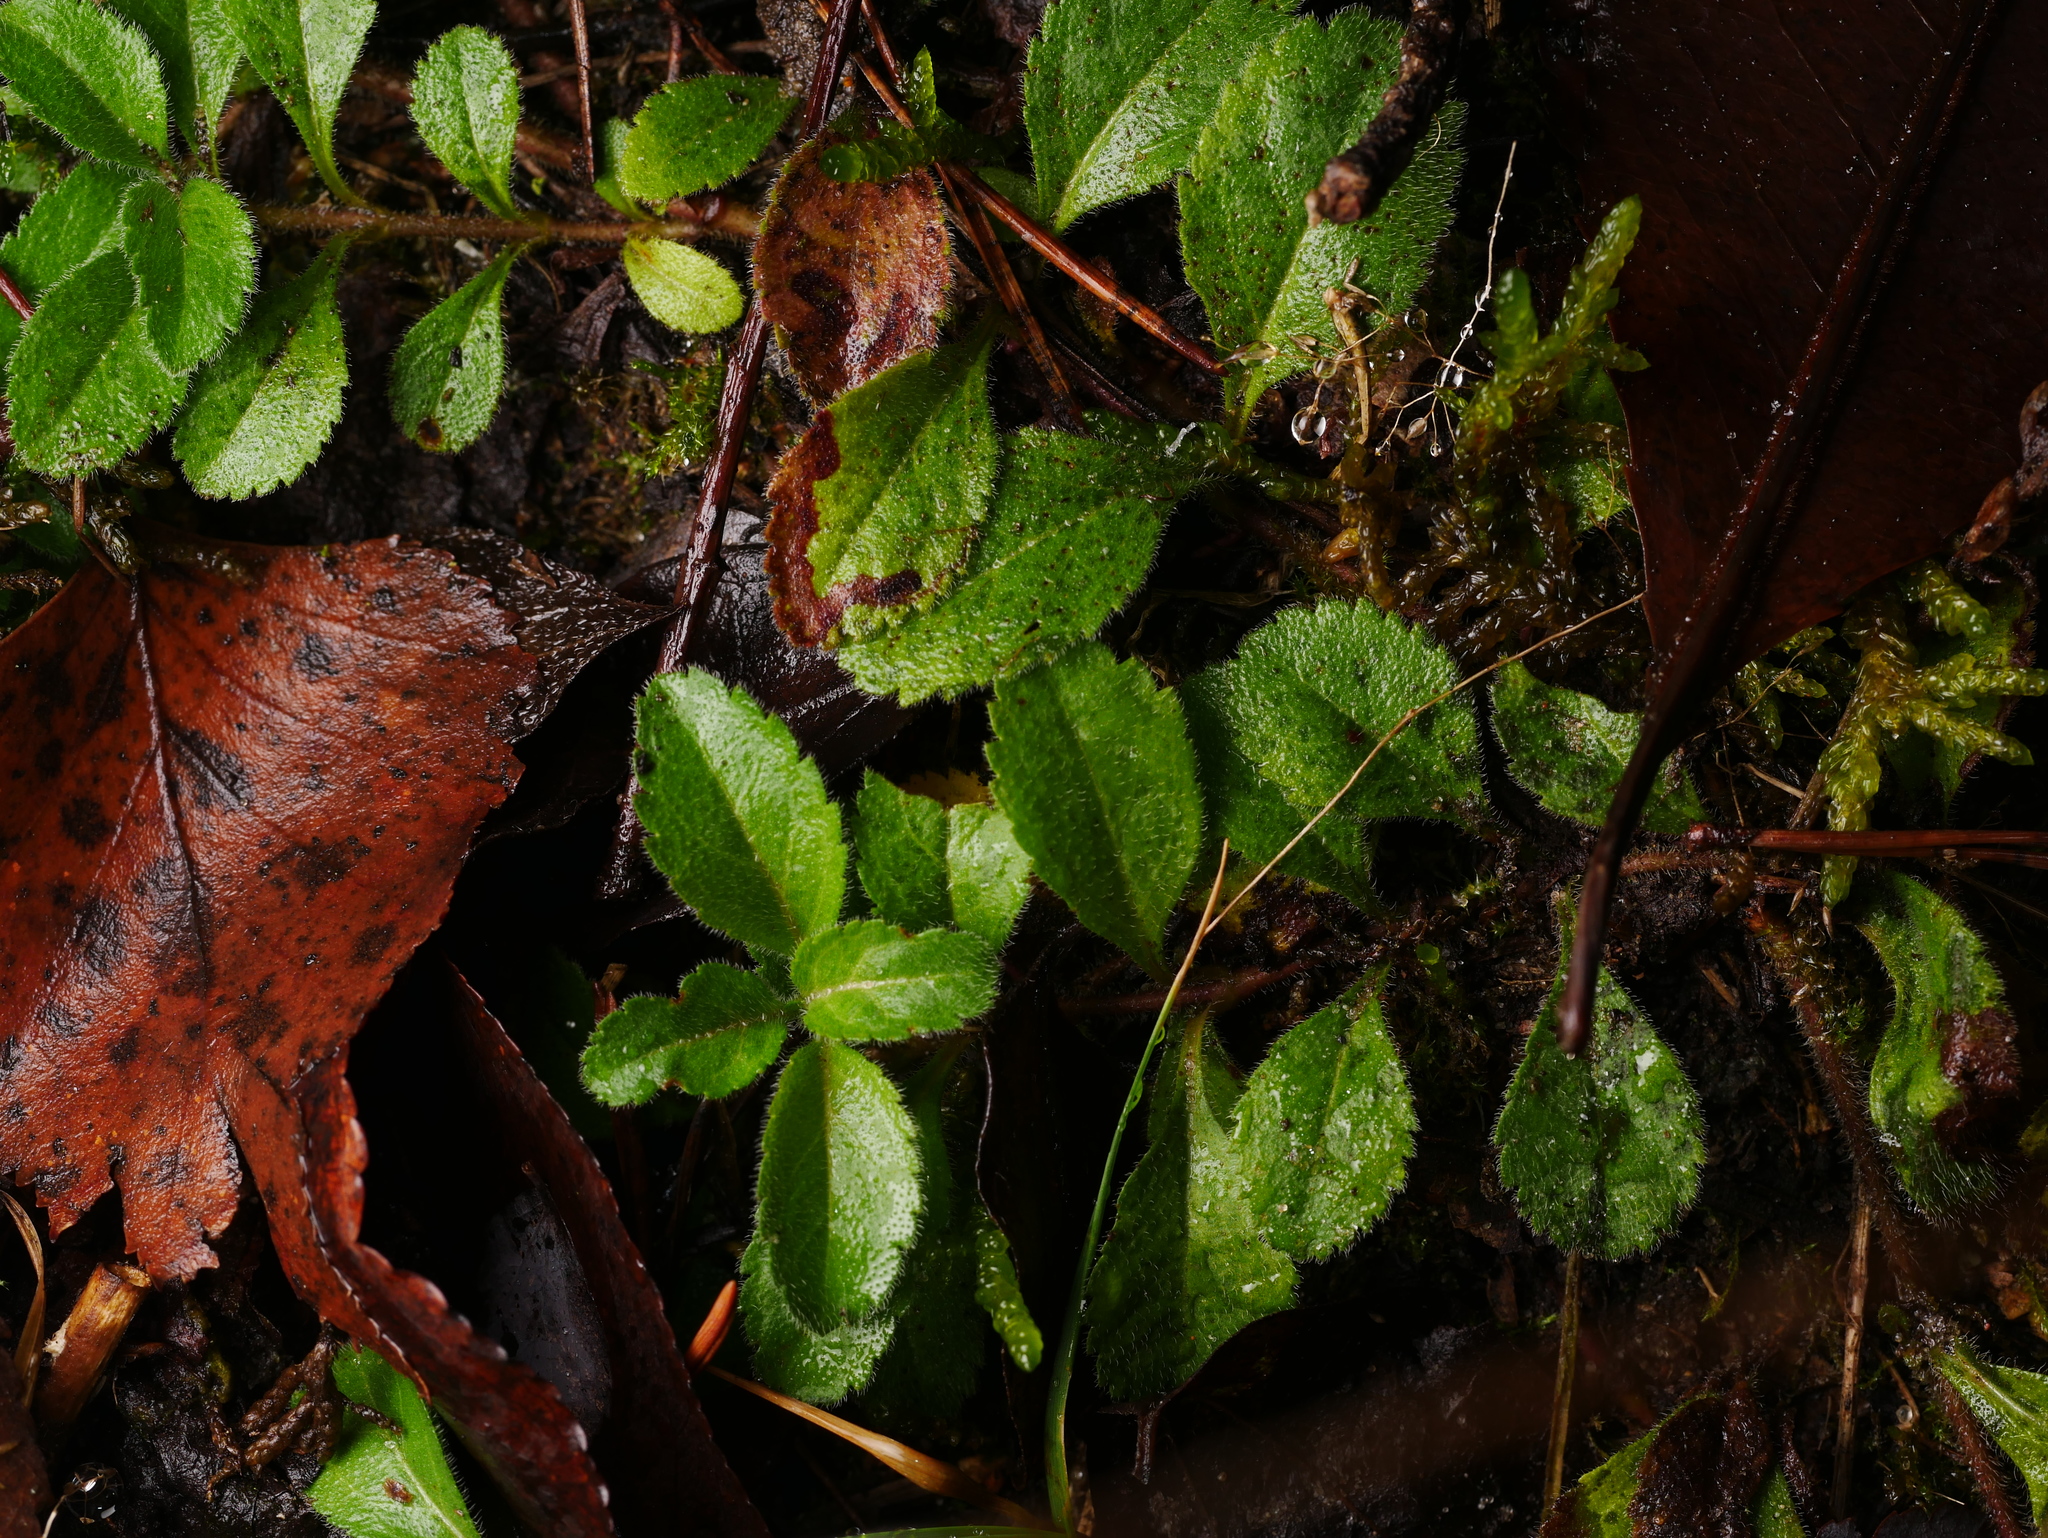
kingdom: Plantae
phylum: Tracheophyta
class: Magnoliopsida
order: Lamiales
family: Plantaginaceae
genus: Veronica
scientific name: Veronica officinalis
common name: Common speedwell
